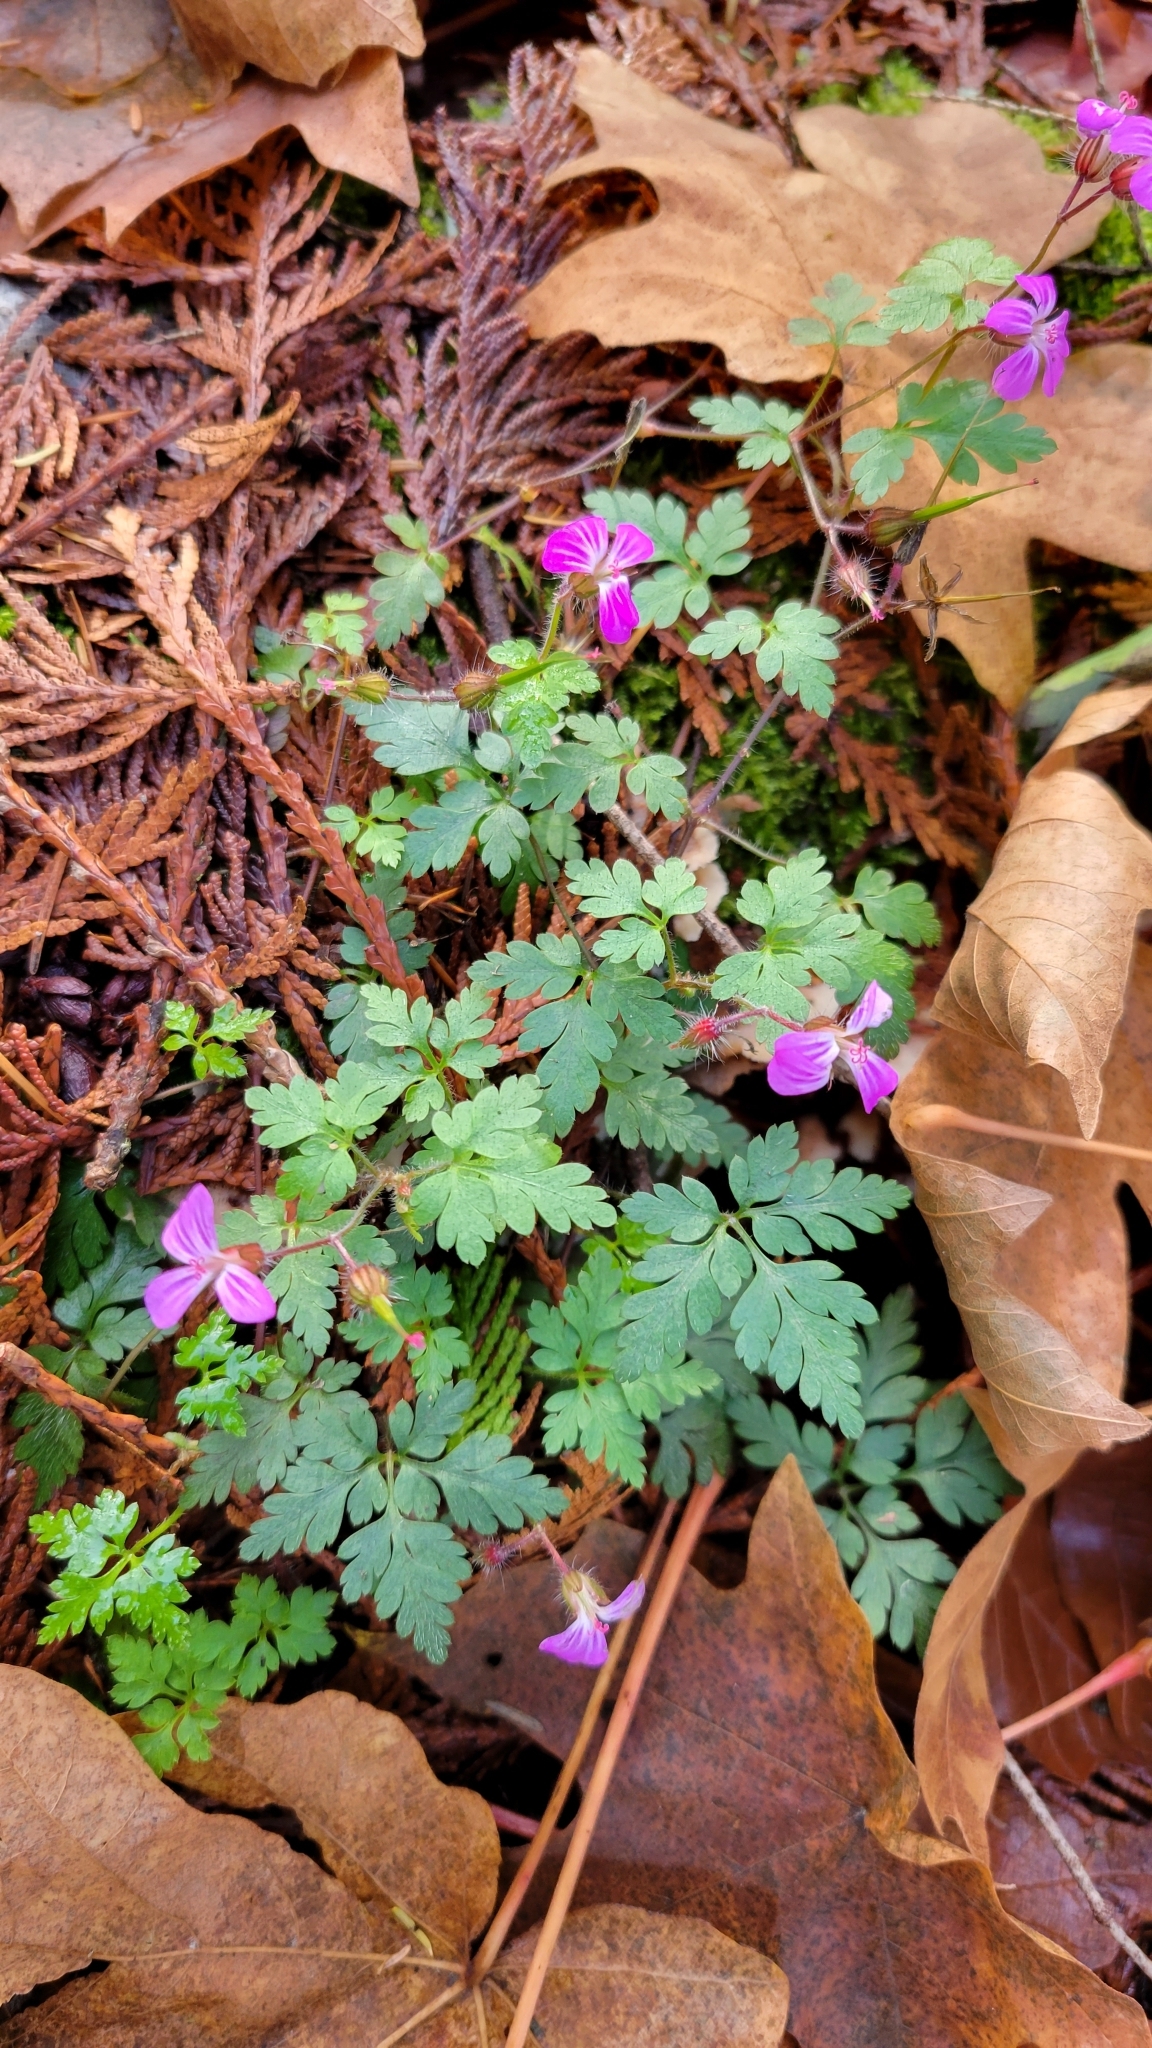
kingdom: Plantae
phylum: Tracheophyta
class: Magnoliopsida
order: Geraniales
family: Geraniaceae
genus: Geranium
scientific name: Geranium robertianum
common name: Herb-robert
